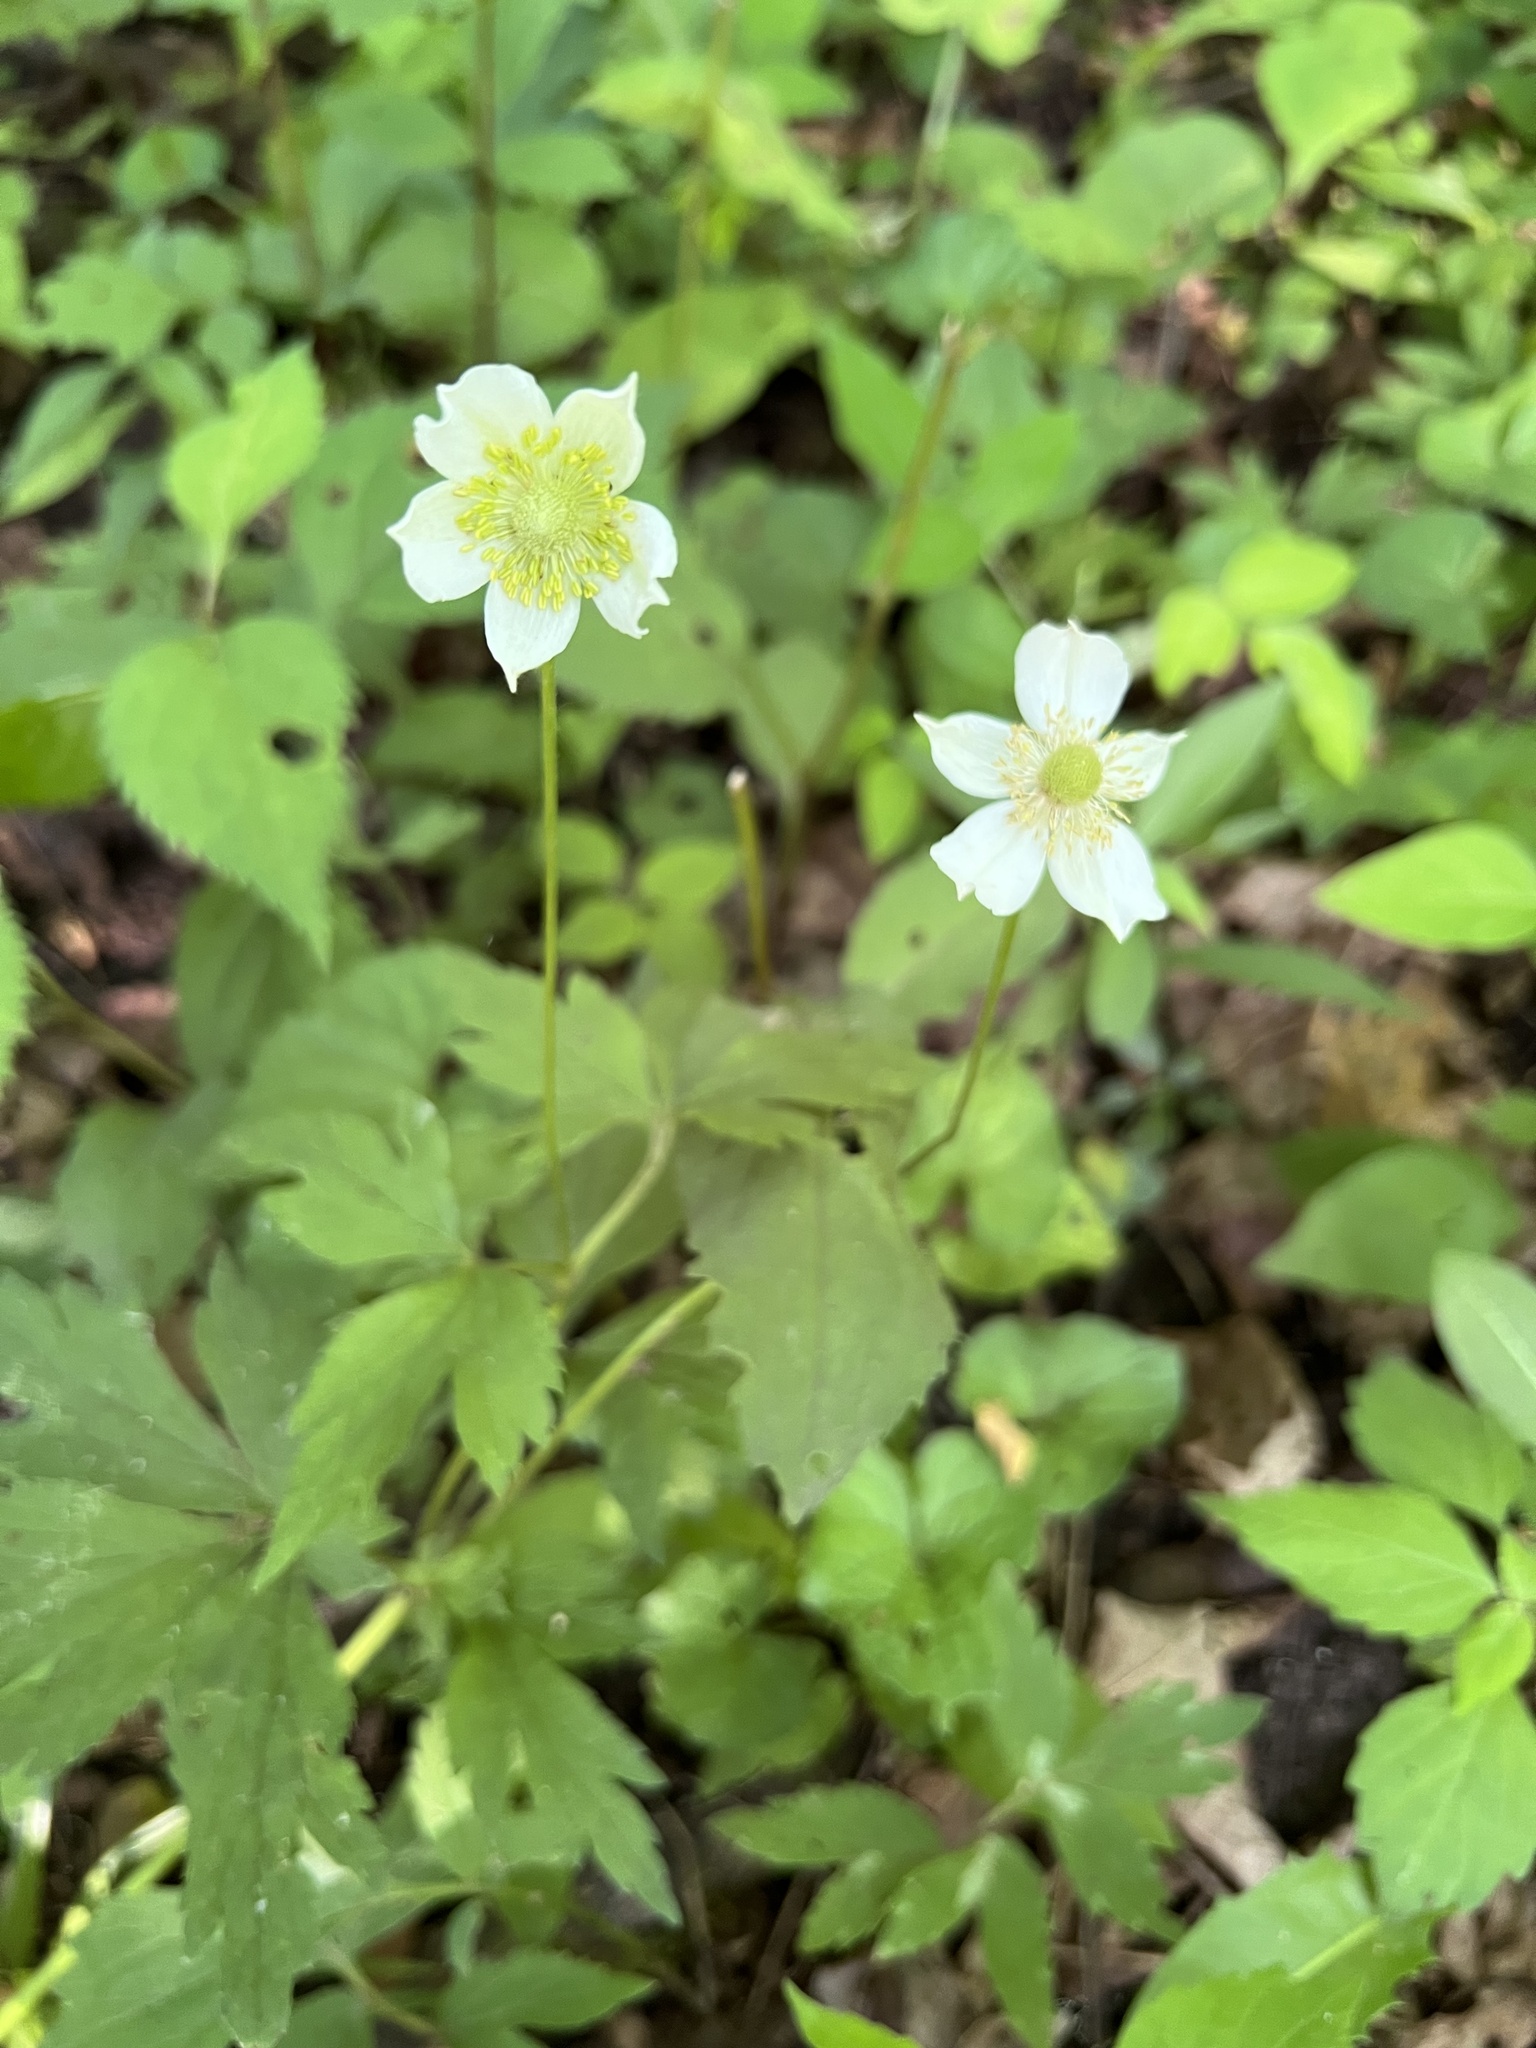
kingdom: Plantae
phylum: Tracheophyta
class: Magnoliopsida
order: Ranunculales
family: Ranunculaceae
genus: Anemone
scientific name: Anemone virginiana
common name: Tall anemone
